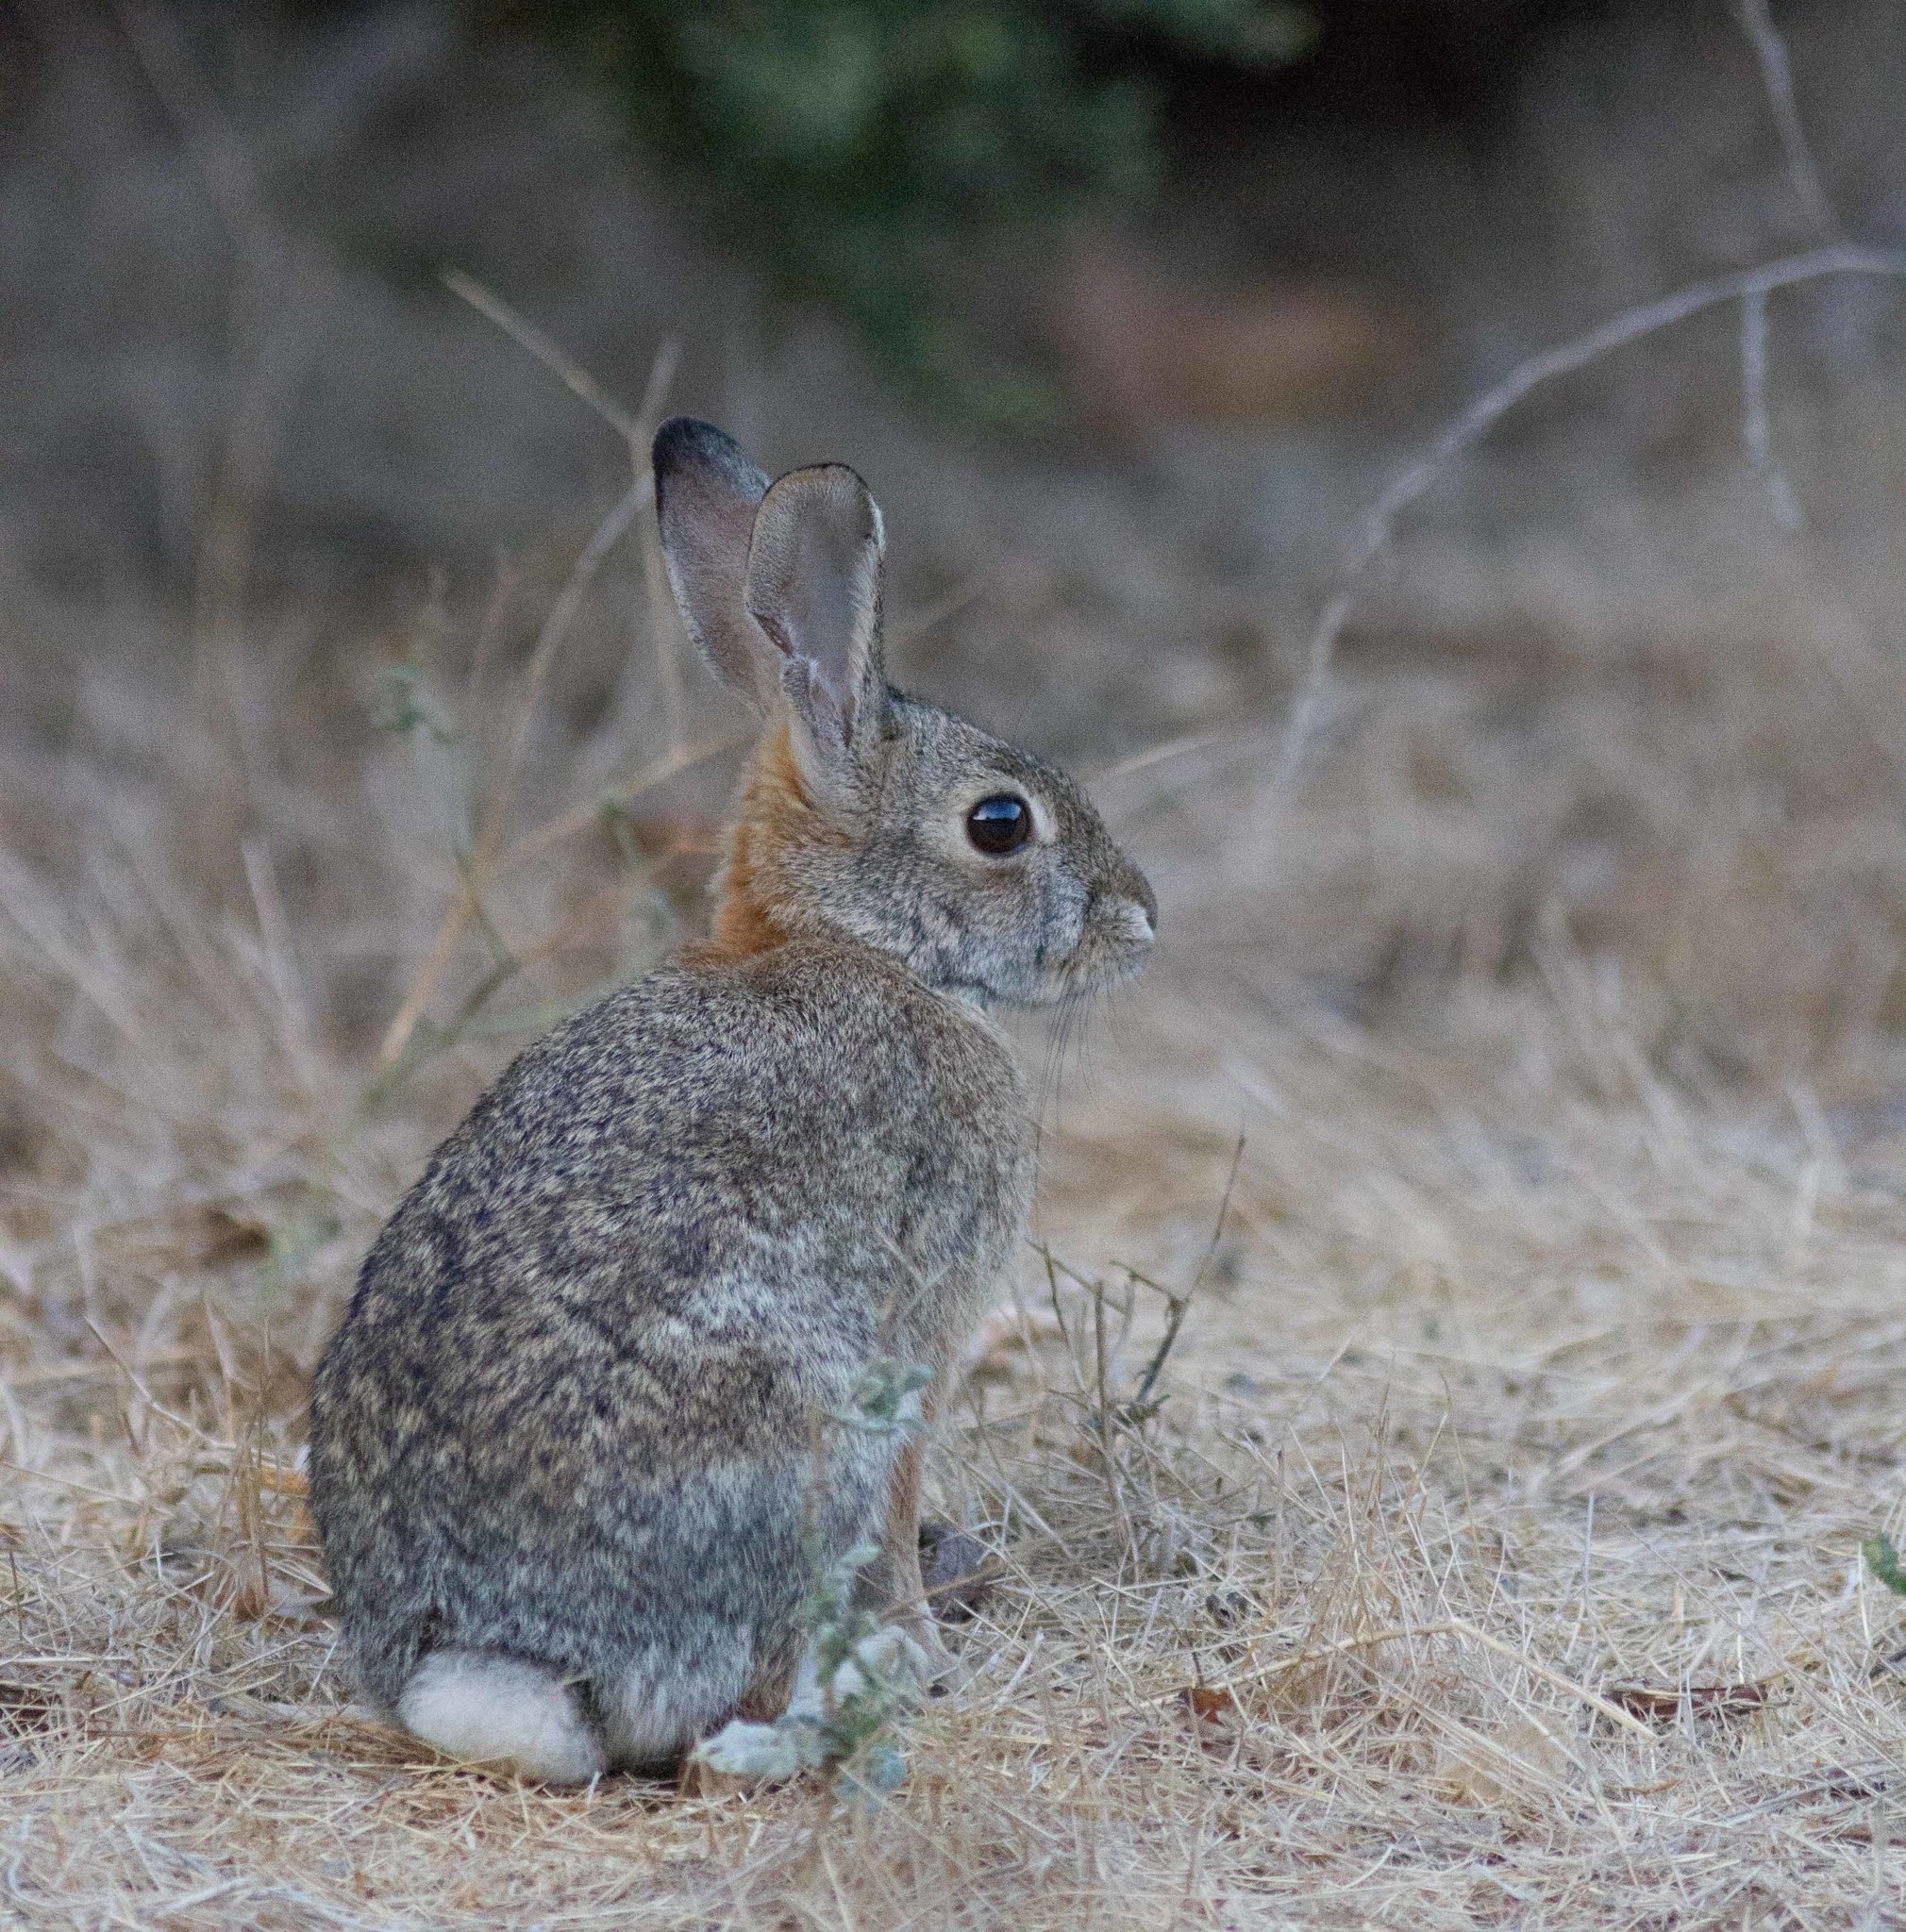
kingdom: Animalia
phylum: Chordata
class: Mammalia
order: Lagomorpha
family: Leporidae
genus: Sylvilagus
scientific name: Sylvilagus audubonii
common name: Desert cottontail
